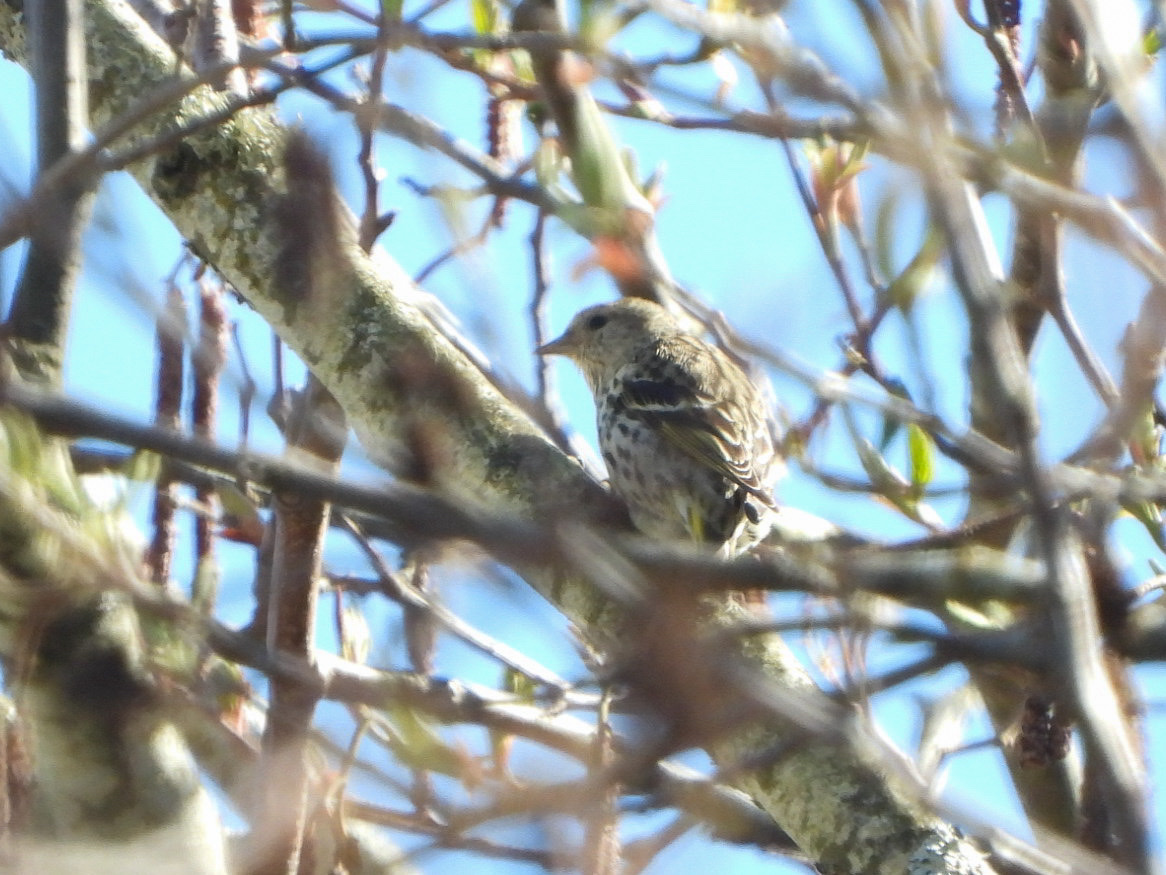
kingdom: Animalia
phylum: Chordata
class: Aves
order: Passeriformes
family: Fringillidae
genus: Spinus
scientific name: Spinus pinus
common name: Pine siskin
